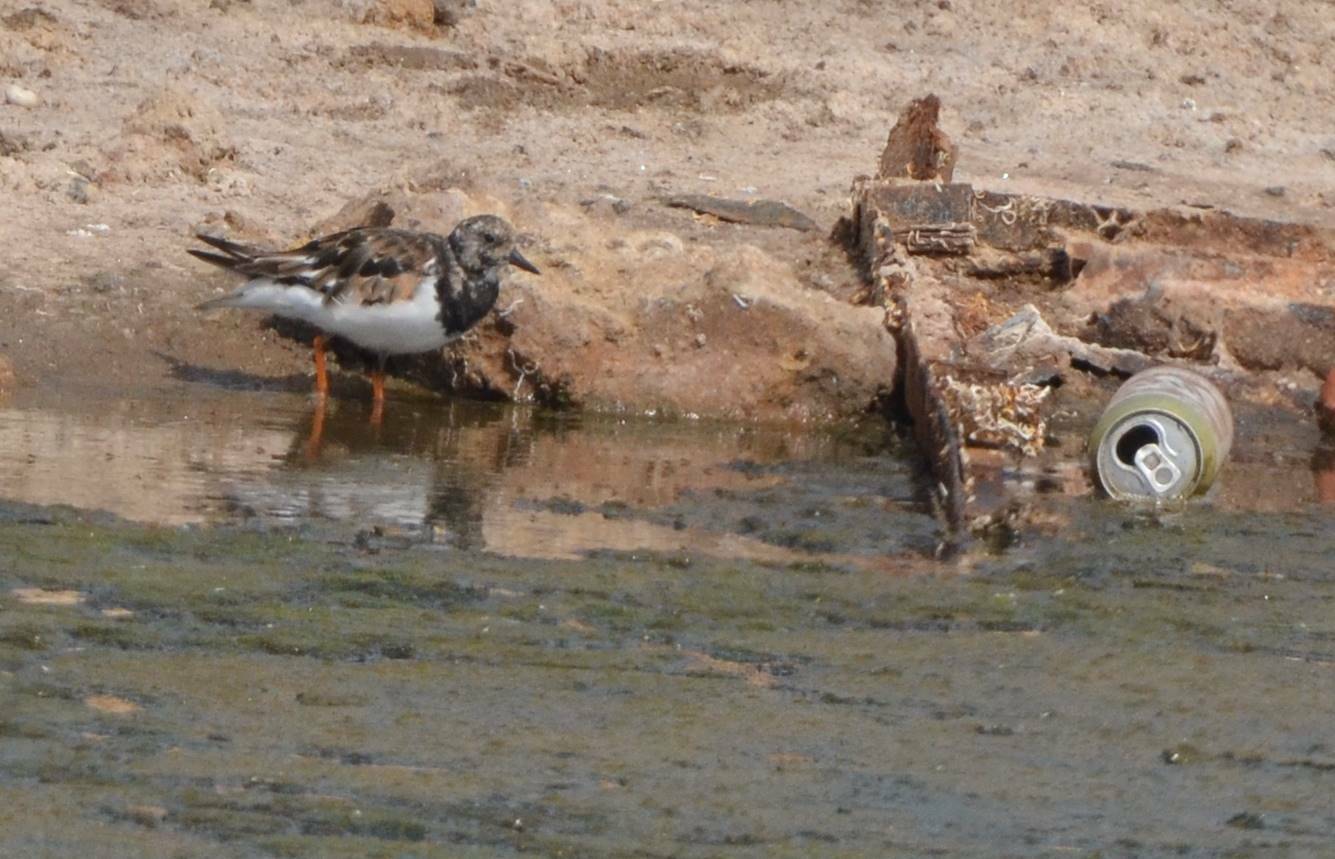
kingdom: Animalia
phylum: Chordata
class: Aves
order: Charadriiformes
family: Scolopacidae
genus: Arenaria
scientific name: Arenaria interpres
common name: Ruddy turnstone
